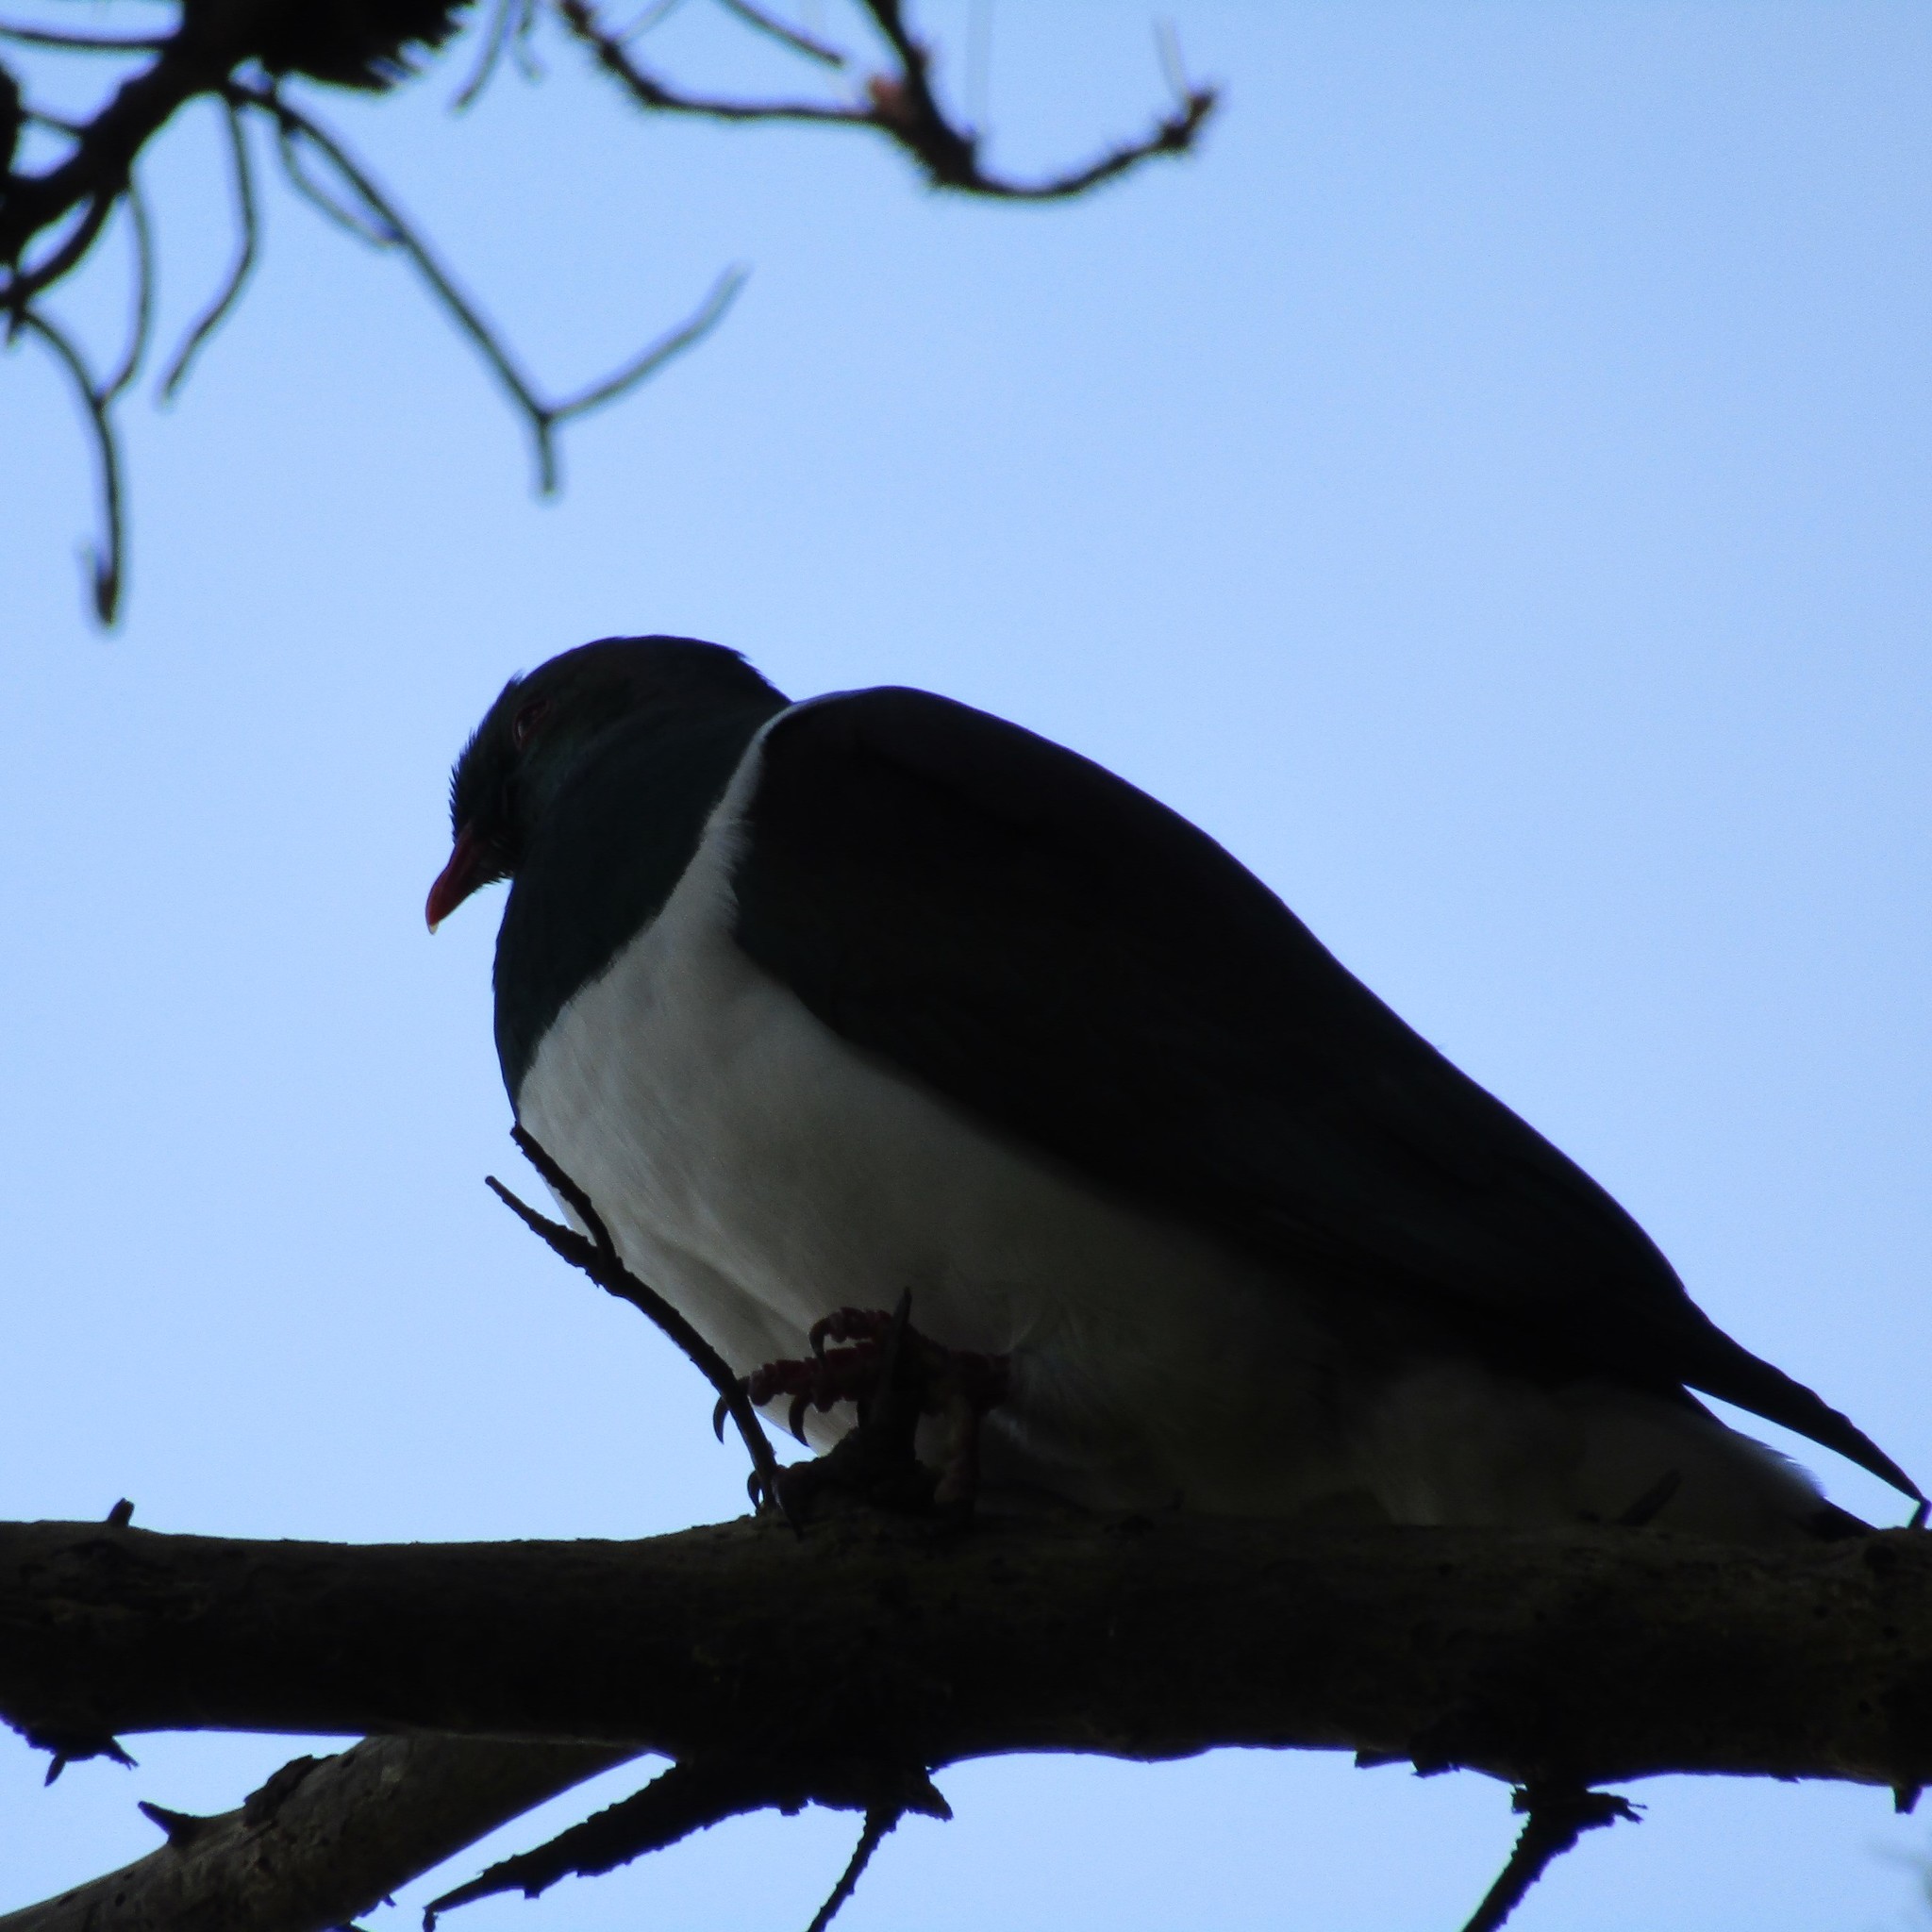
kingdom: Animalia
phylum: Chordata
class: Aves
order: Columbiformes
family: Columbidae
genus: Hemiphaga
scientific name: Hemiphaga novaeseelandiae
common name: New zealand pigeon
